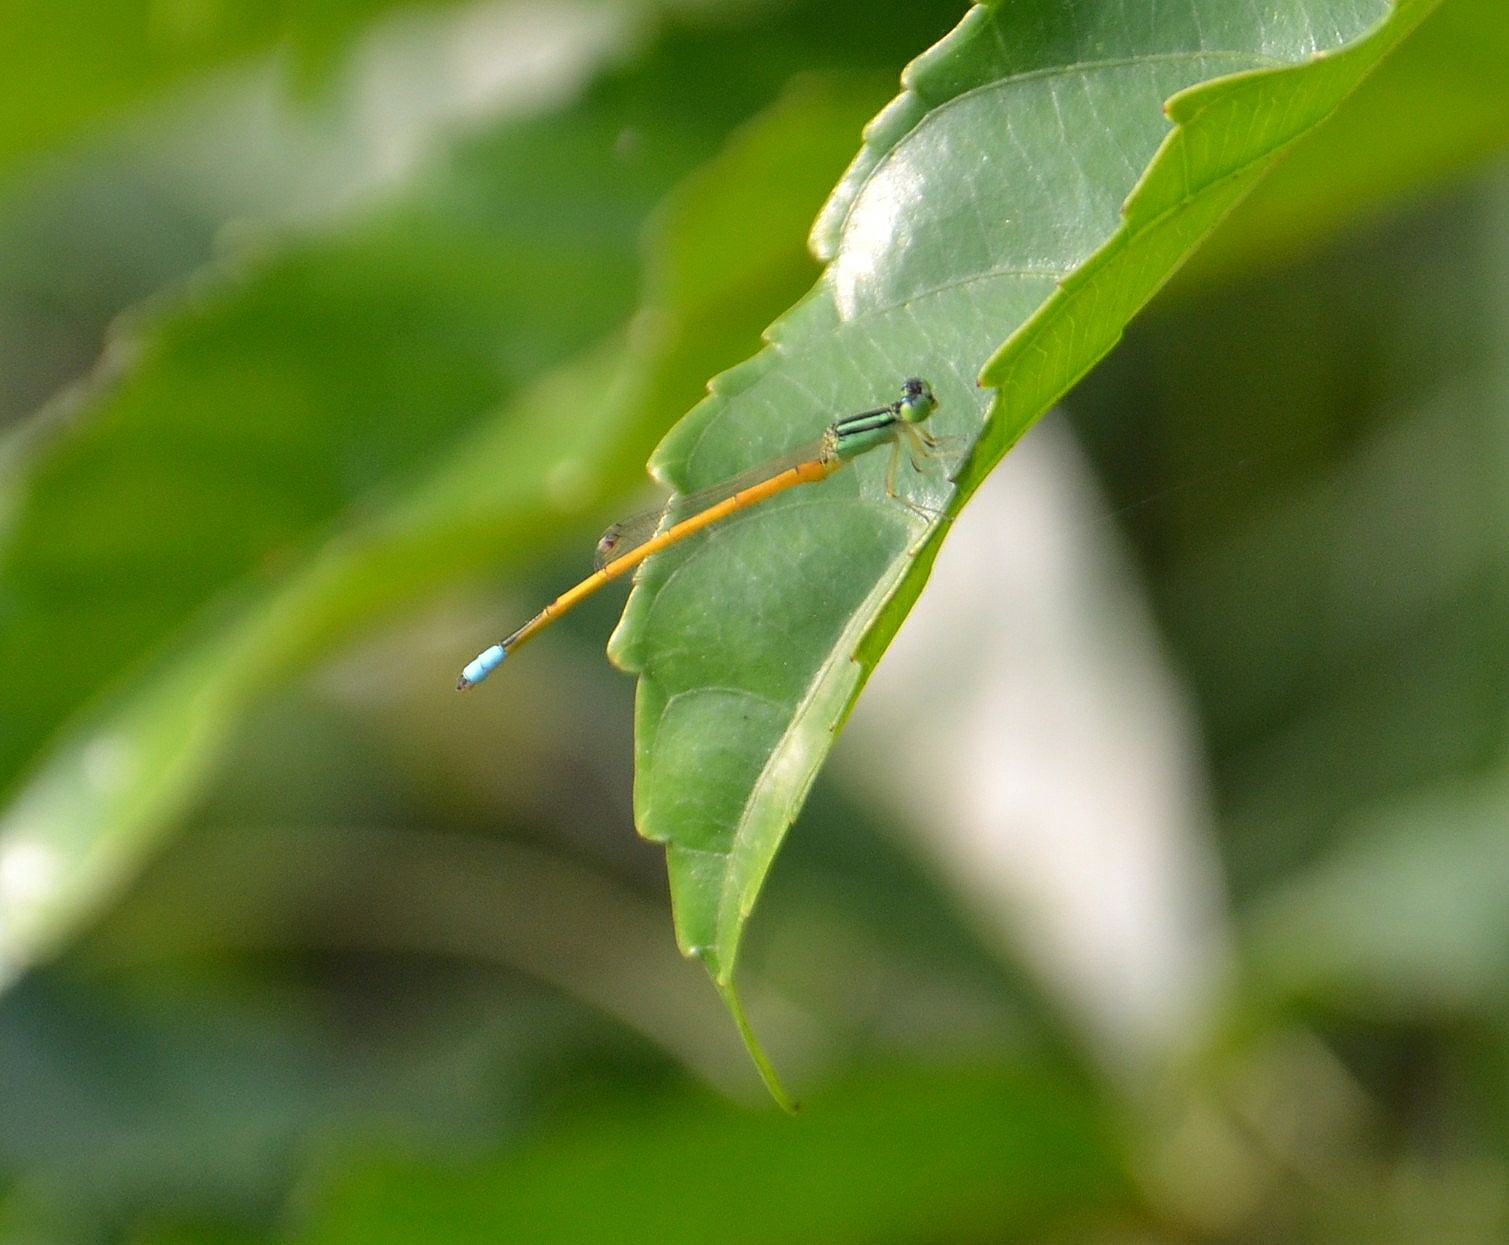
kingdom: Animalia
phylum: Arthropoda
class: Insecta
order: Odonata
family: Coenagrionidae
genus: Ischnura
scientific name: Ischnura rubilio
